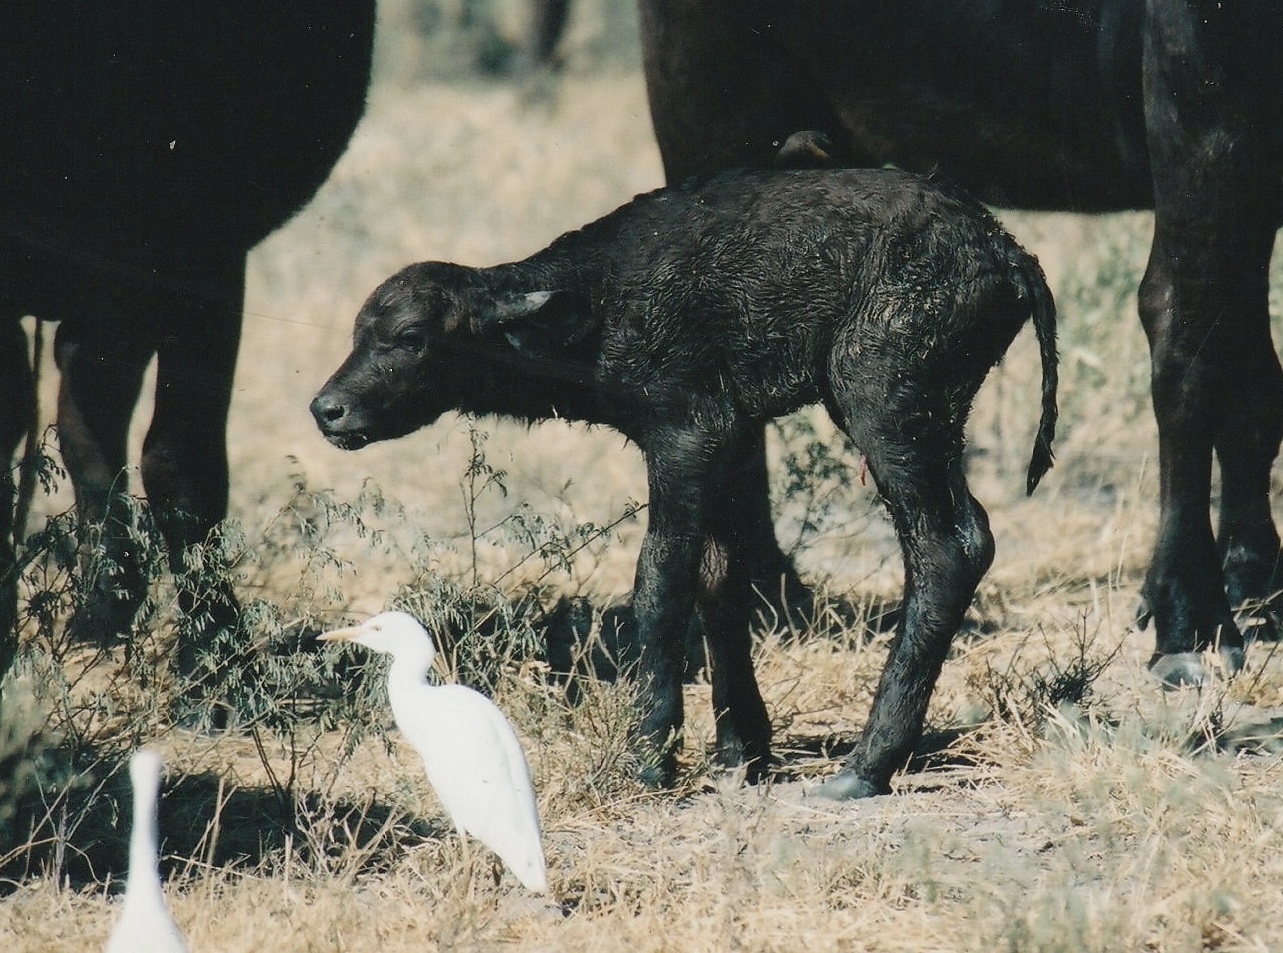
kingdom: Animalia
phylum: Chordata
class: Mammalia
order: Artiodactyla
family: Bovidae
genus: Syncerus
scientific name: Syncerus caffer
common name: African buffalo
